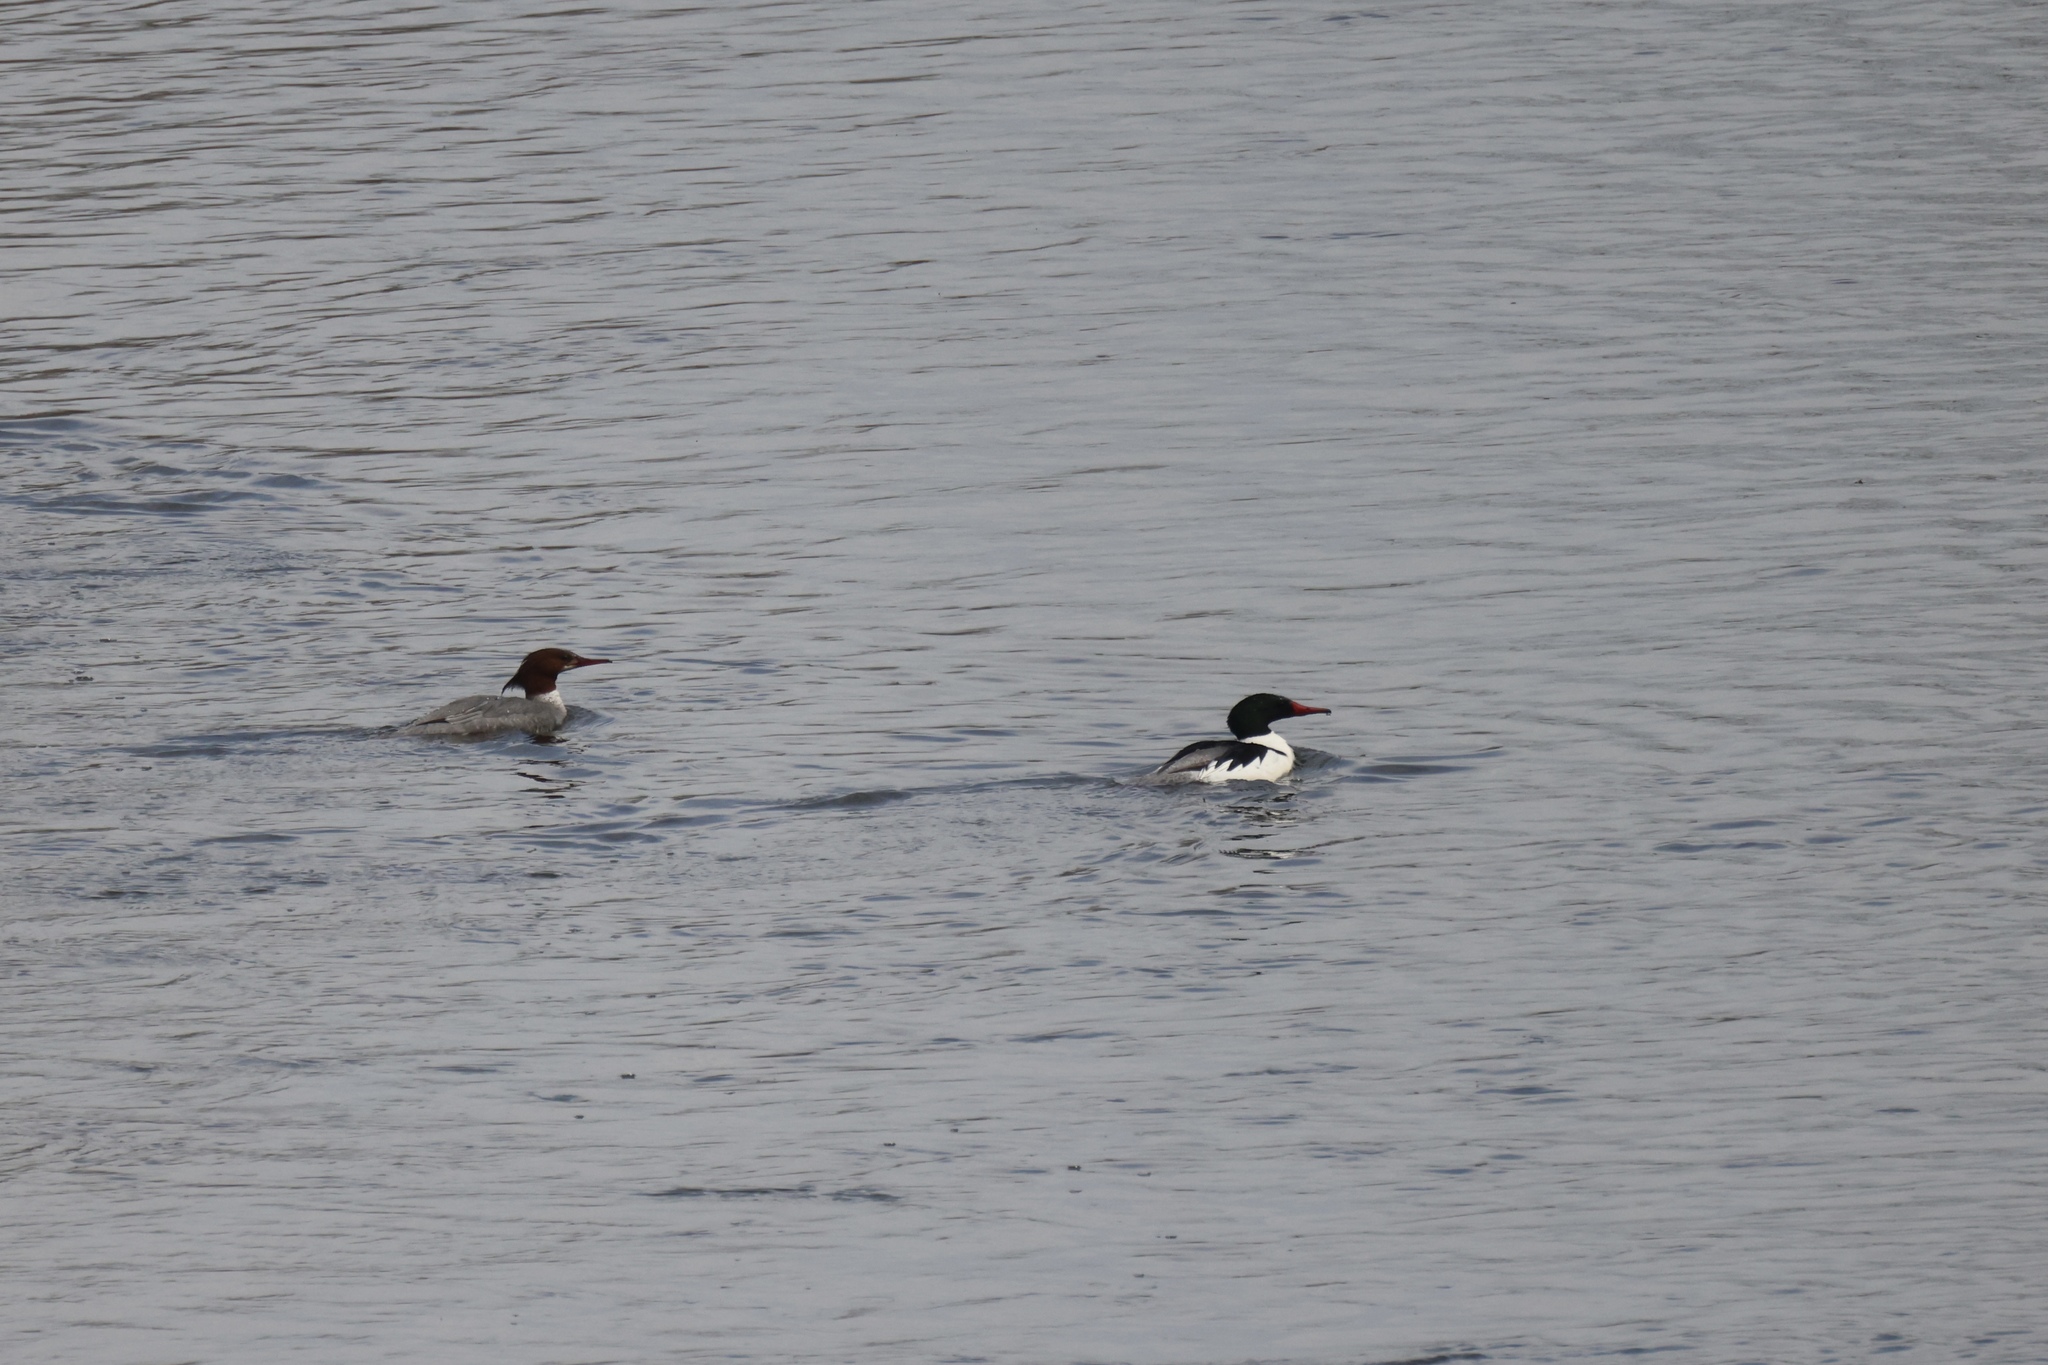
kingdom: Animalia
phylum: Chordata
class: Aves
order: Anseriformes
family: Anatidae
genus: Mergus
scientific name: Mergus merganser
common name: Common merganser
